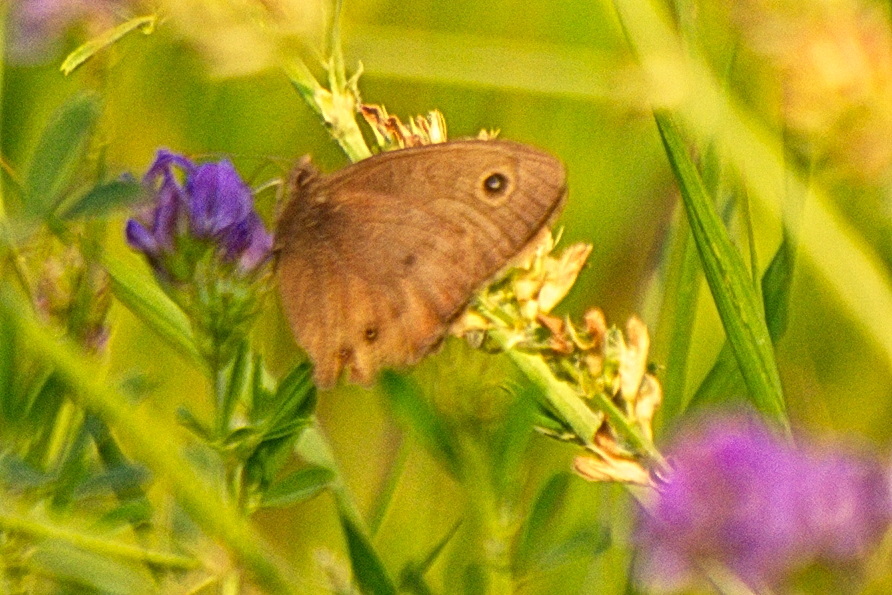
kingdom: Animalia
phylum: Arthropoda
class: Insecta
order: Lepidoptera
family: Nymphalidae
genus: Cercyonis
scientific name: Cercyonis pegala
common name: Common wood-nymph
